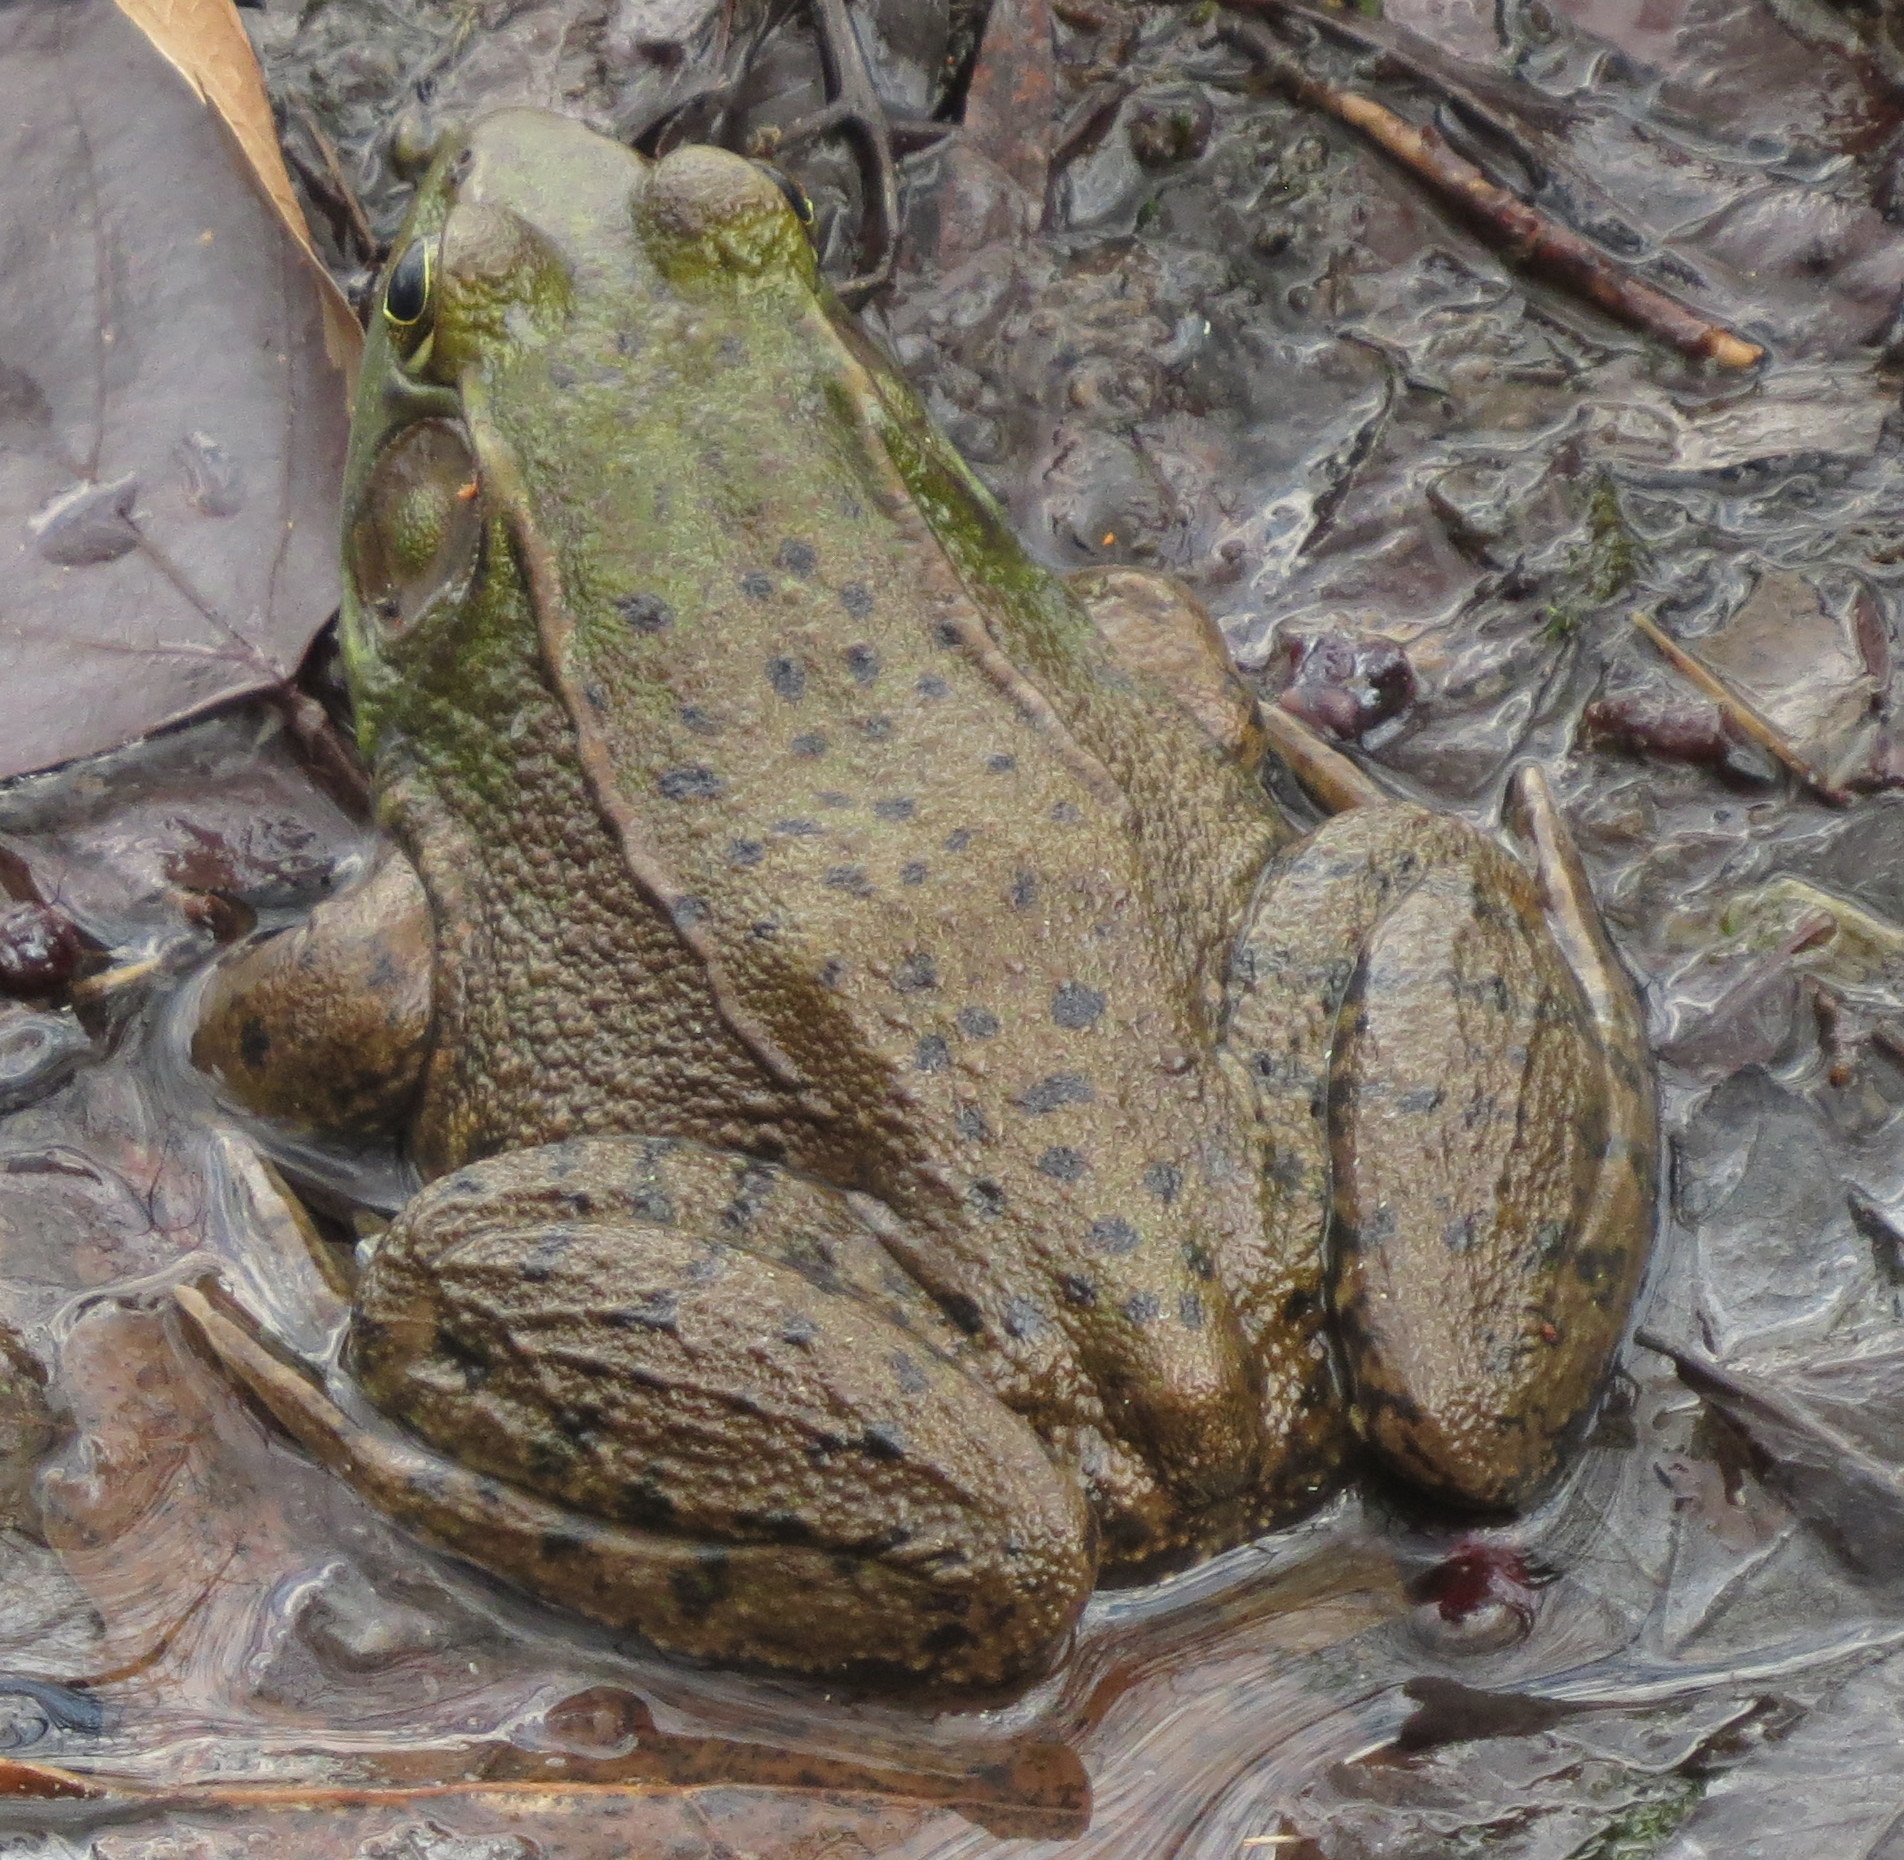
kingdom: Animalia
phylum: Chordata
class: Amphibia
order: Anura
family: Ranidae
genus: Lithobates
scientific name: Lithobates clamitans
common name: Green frog
